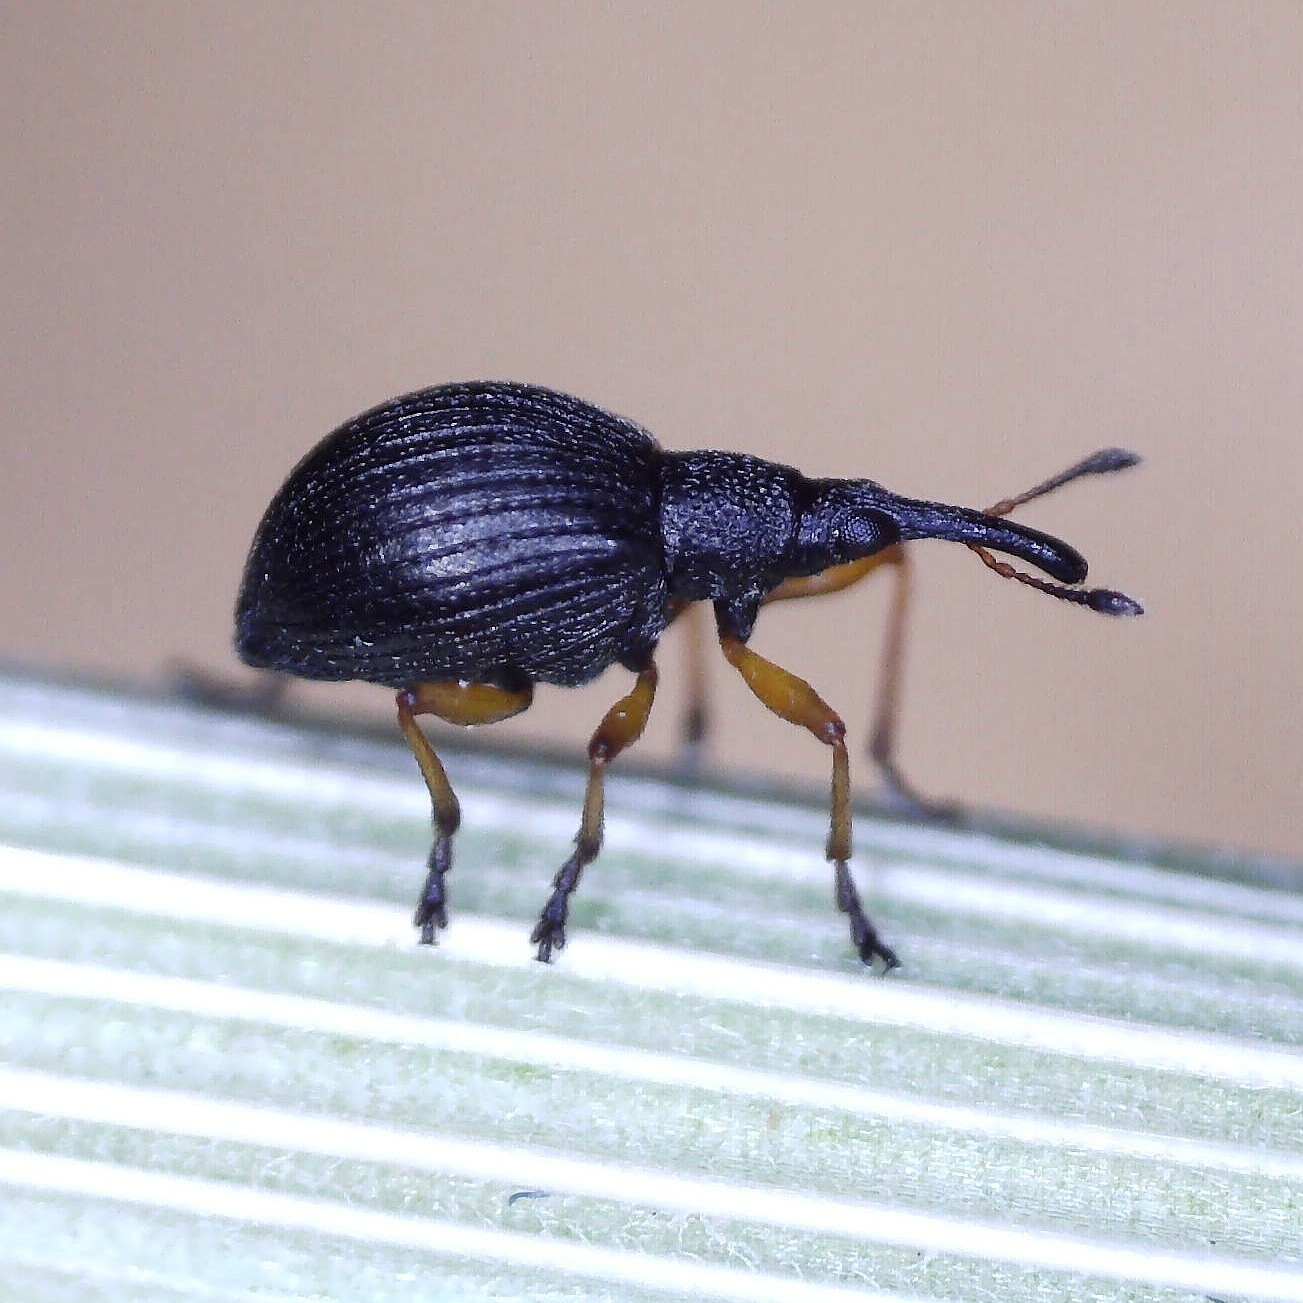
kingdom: Animalia
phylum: Arthropoda
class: Insecta
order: Coleoptera
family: Apionidae
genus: Protapion
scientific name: Protapion fulvipes
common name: White clover seed weevil
